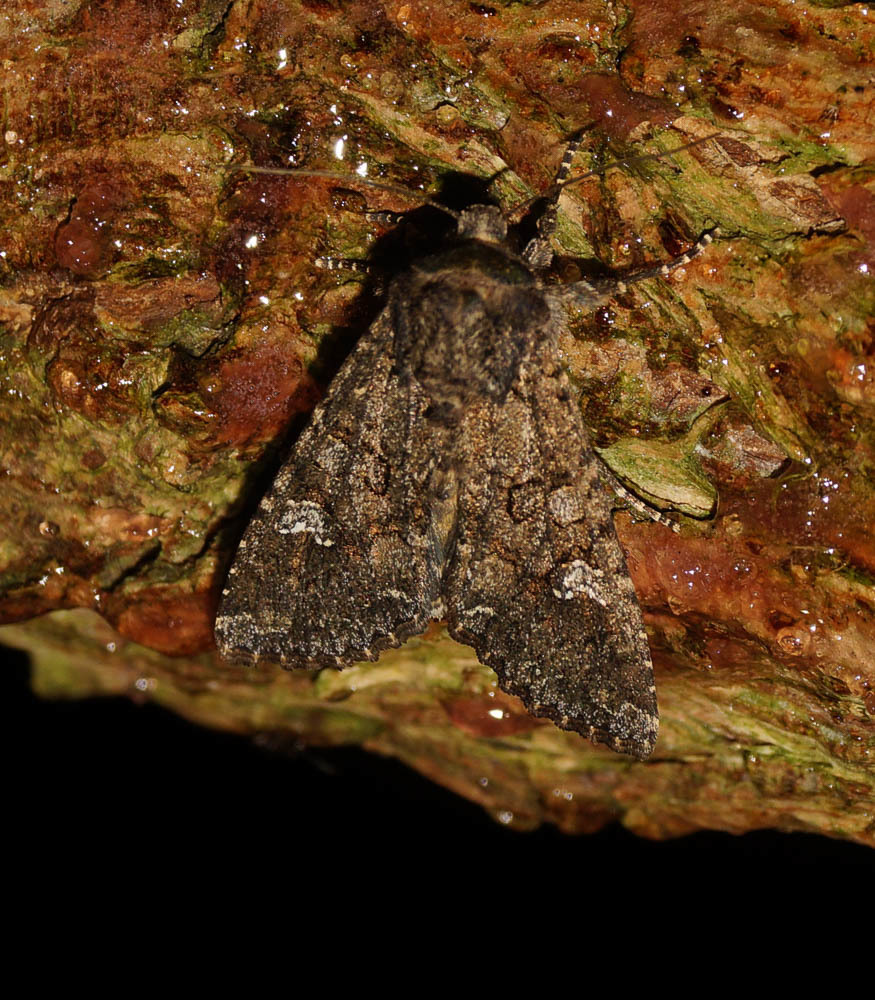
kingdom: Animalia
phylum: Arthropoda
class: Insecta
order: Lepidoptera
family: Noctuidae
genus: Mamestra
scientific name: Mamestra brassicae
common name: Cabbage moth
